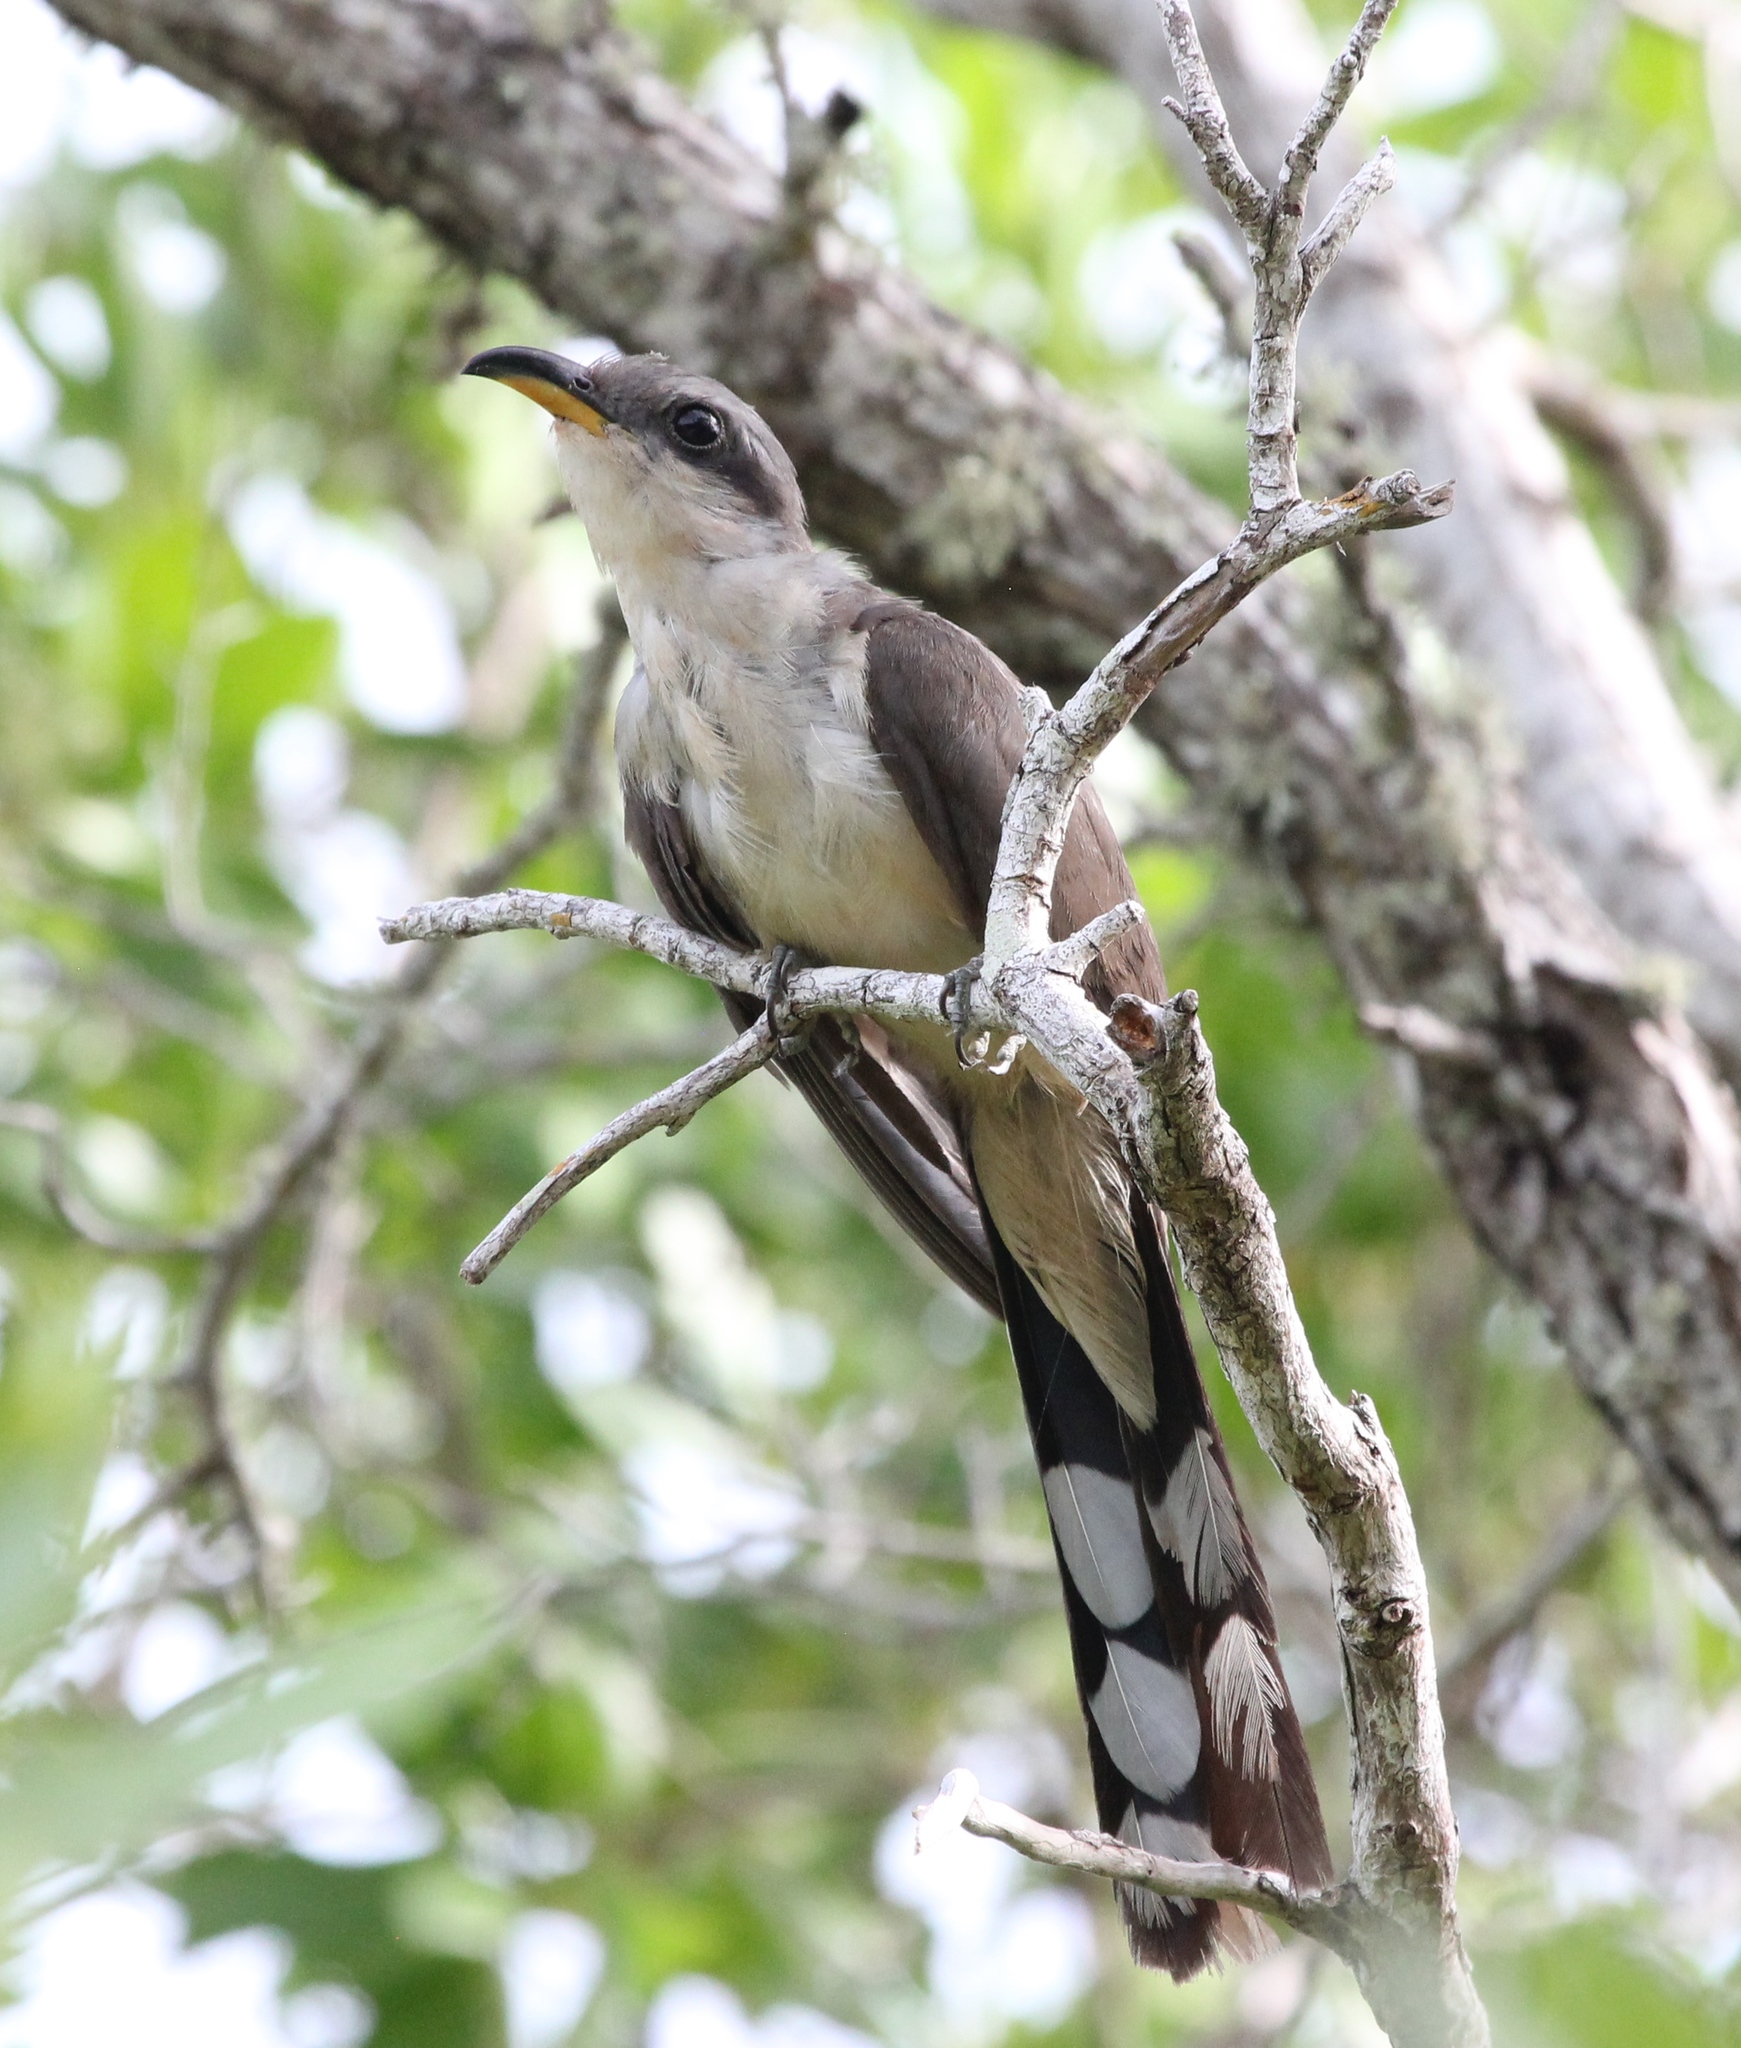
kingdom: Animalia
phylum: Chordata
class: Aves
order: Cuculiformes
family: Cuculidae
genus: Coccyzus
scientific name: Coccyzus minor
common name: Mangrove cuckoo
